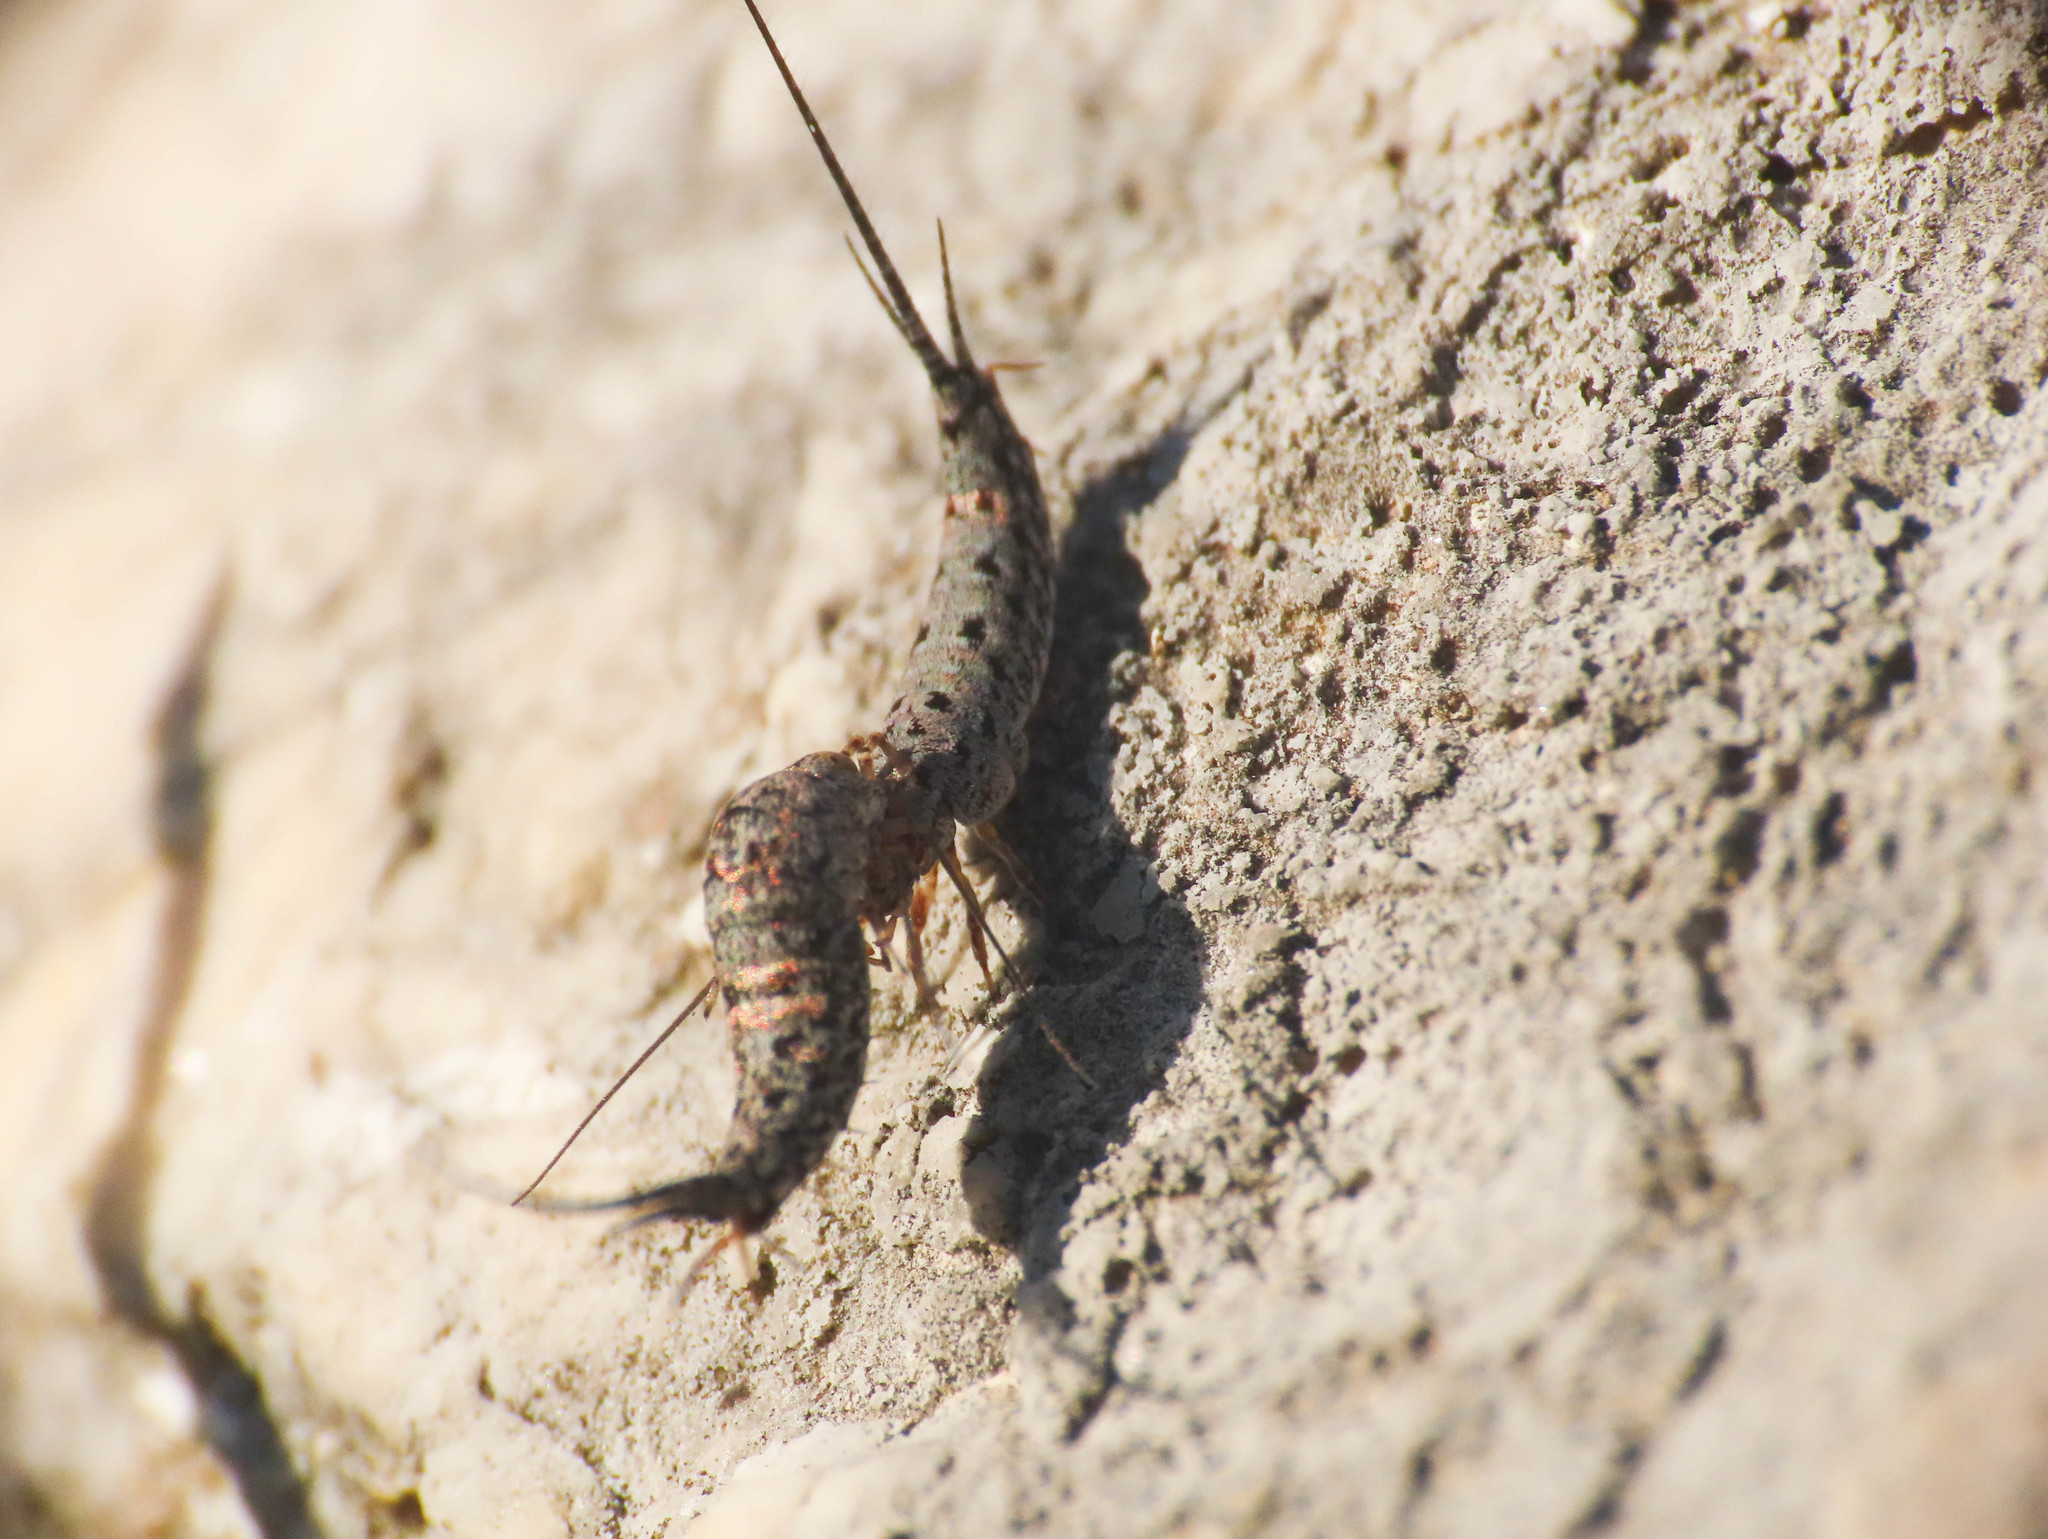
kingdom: Animalia
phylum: Arthropoda
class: Insecta
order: Archaeognatha
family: Meinertellidae
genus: Machilinus
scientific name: Machilinus rupestris
